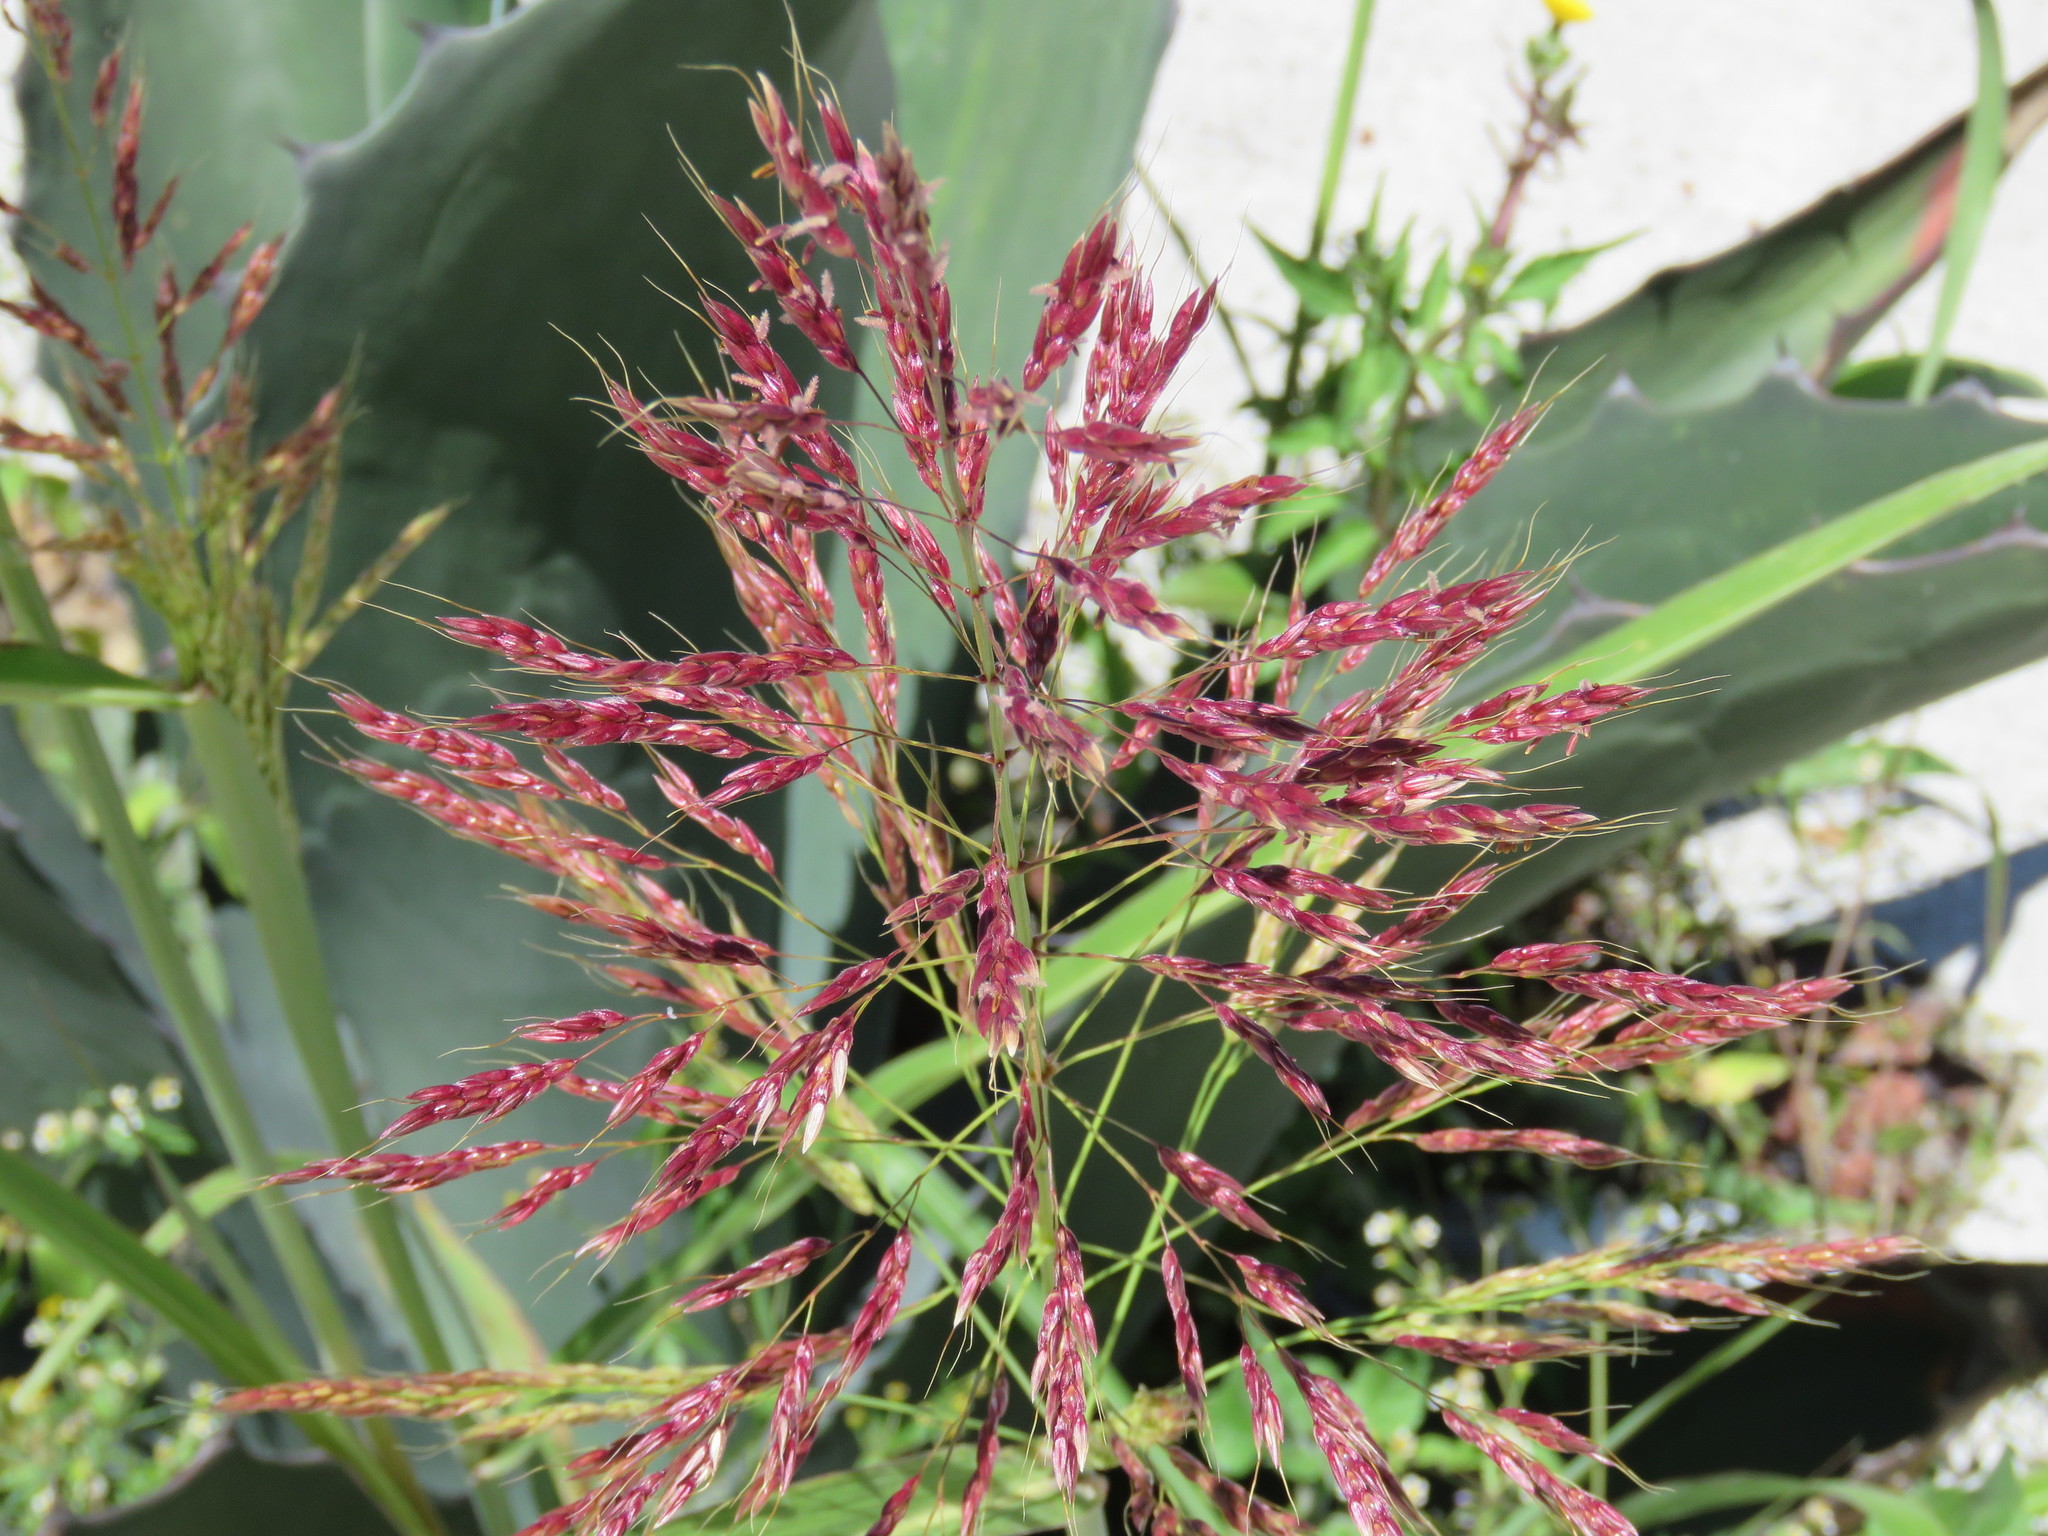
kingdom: Plantae
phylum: Tracheophyta
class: Liliopsida
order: Poales
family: Poaceae
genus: Sorghum
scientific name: Sorghum halepense
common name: Johnson-grass
